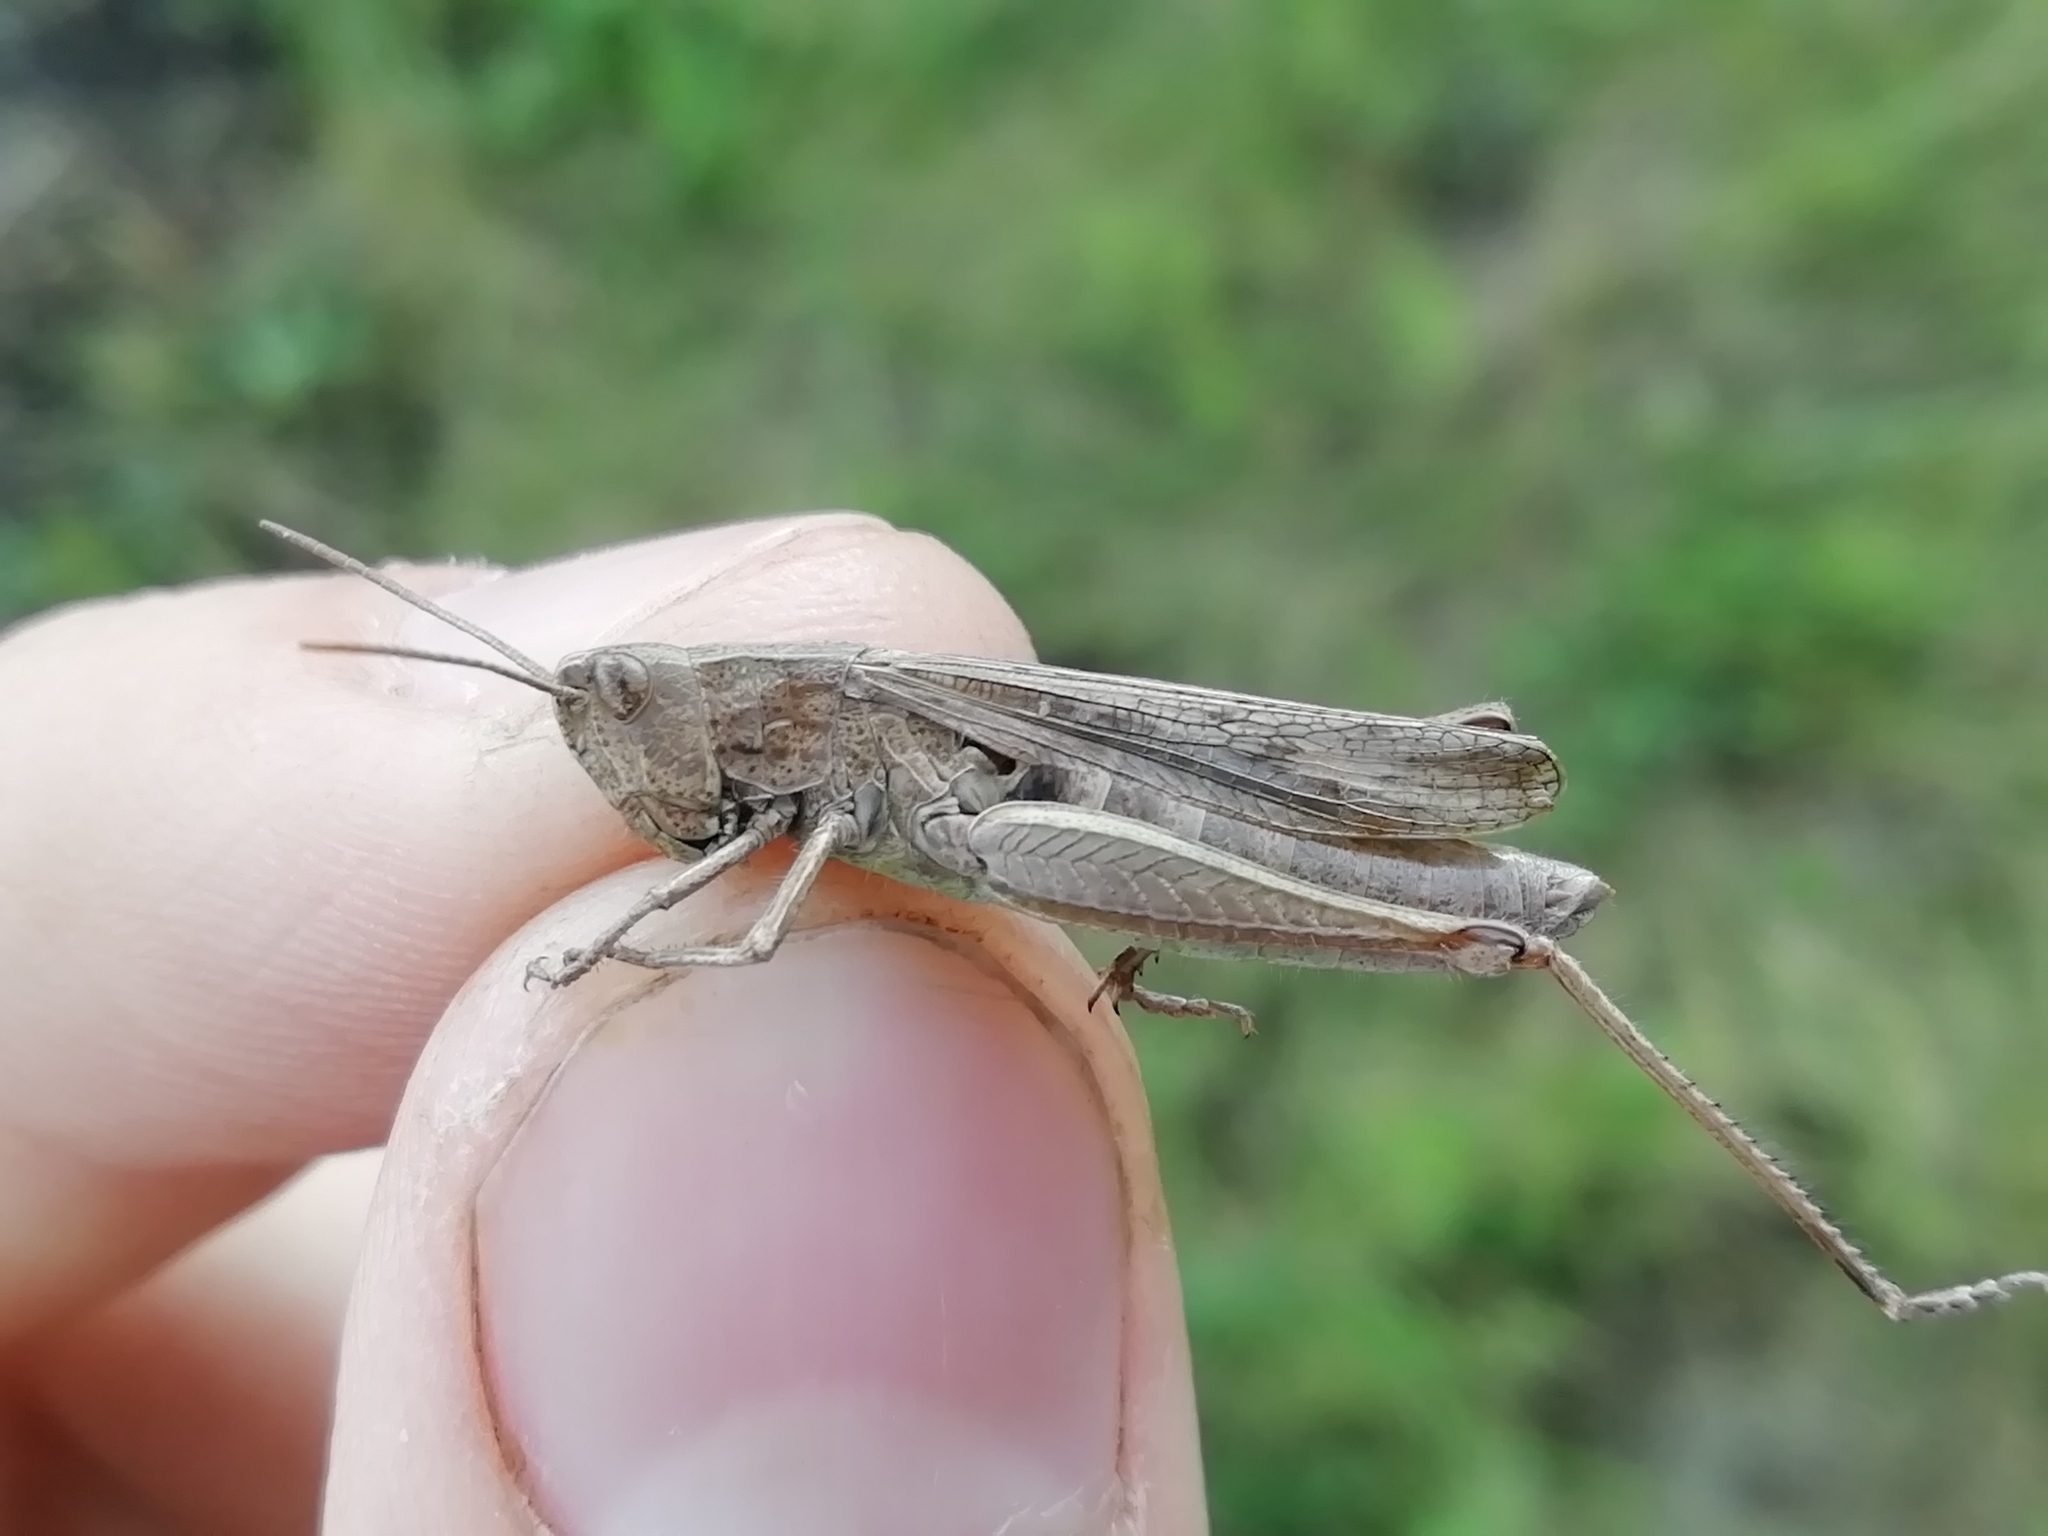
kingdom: Animalia
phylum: Arthropoda
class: Insecta
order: Orthoptera
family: Acrididae
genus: Chorthippus
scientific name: Chorthippus dorsatus
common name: Steppe grasshopper
